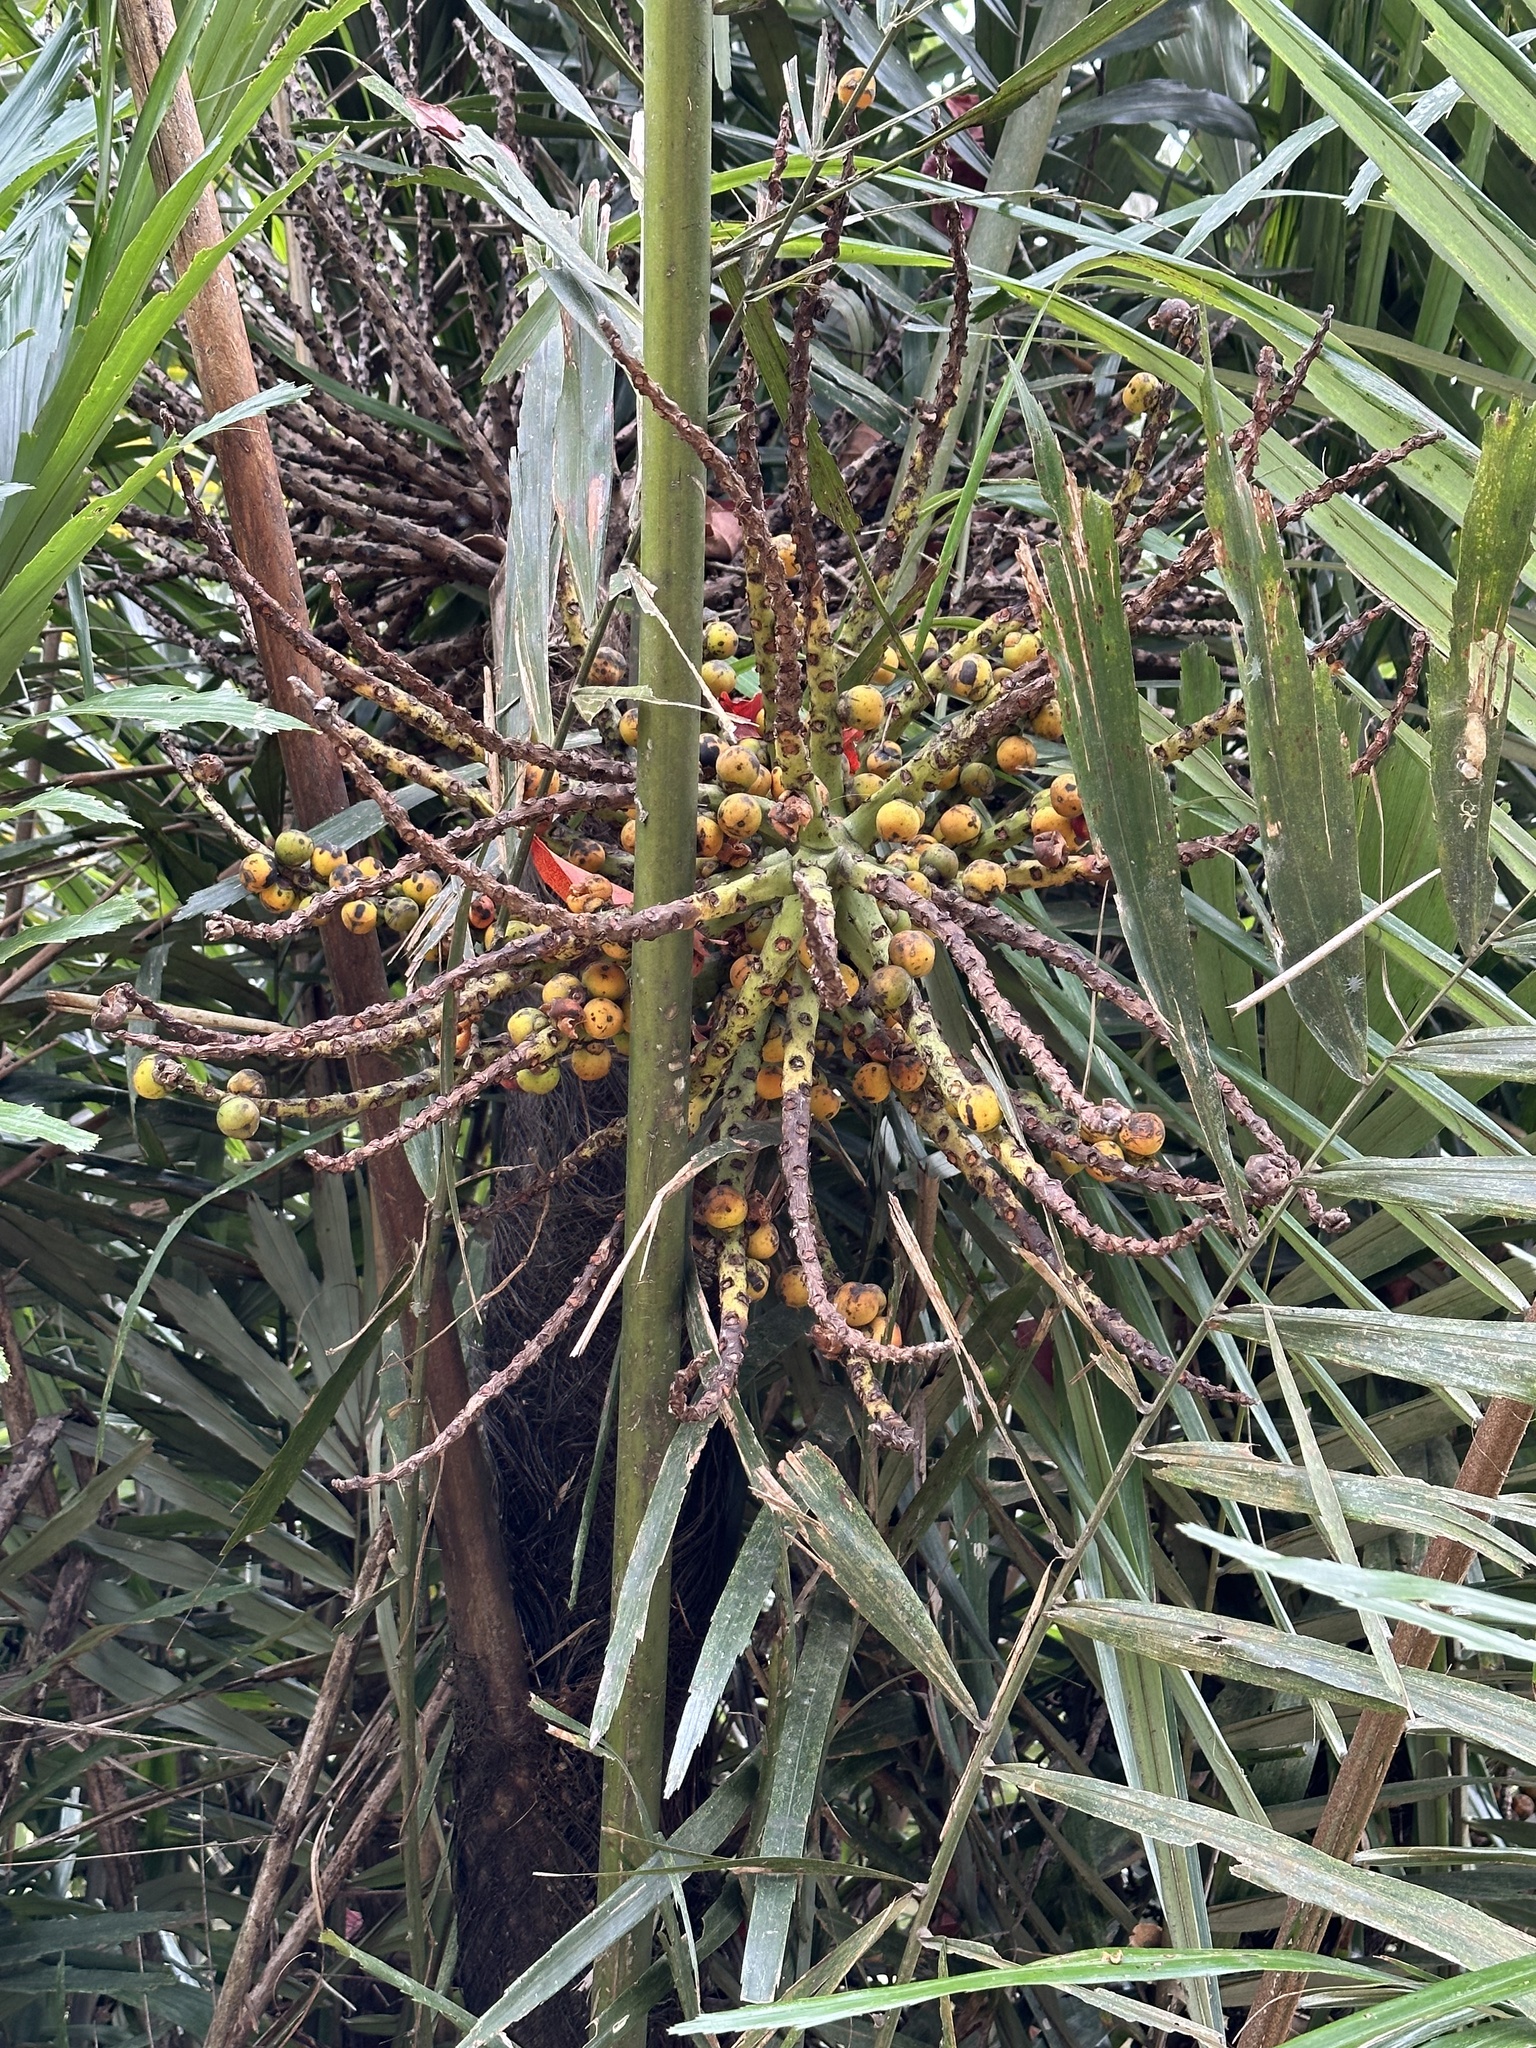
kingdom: Plantae
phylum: Tracheophyta
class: Liliopsida
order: Arecales
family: Arecaceae
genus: Arenga
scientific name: Arenga engleri
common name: Formosan sugar palm
